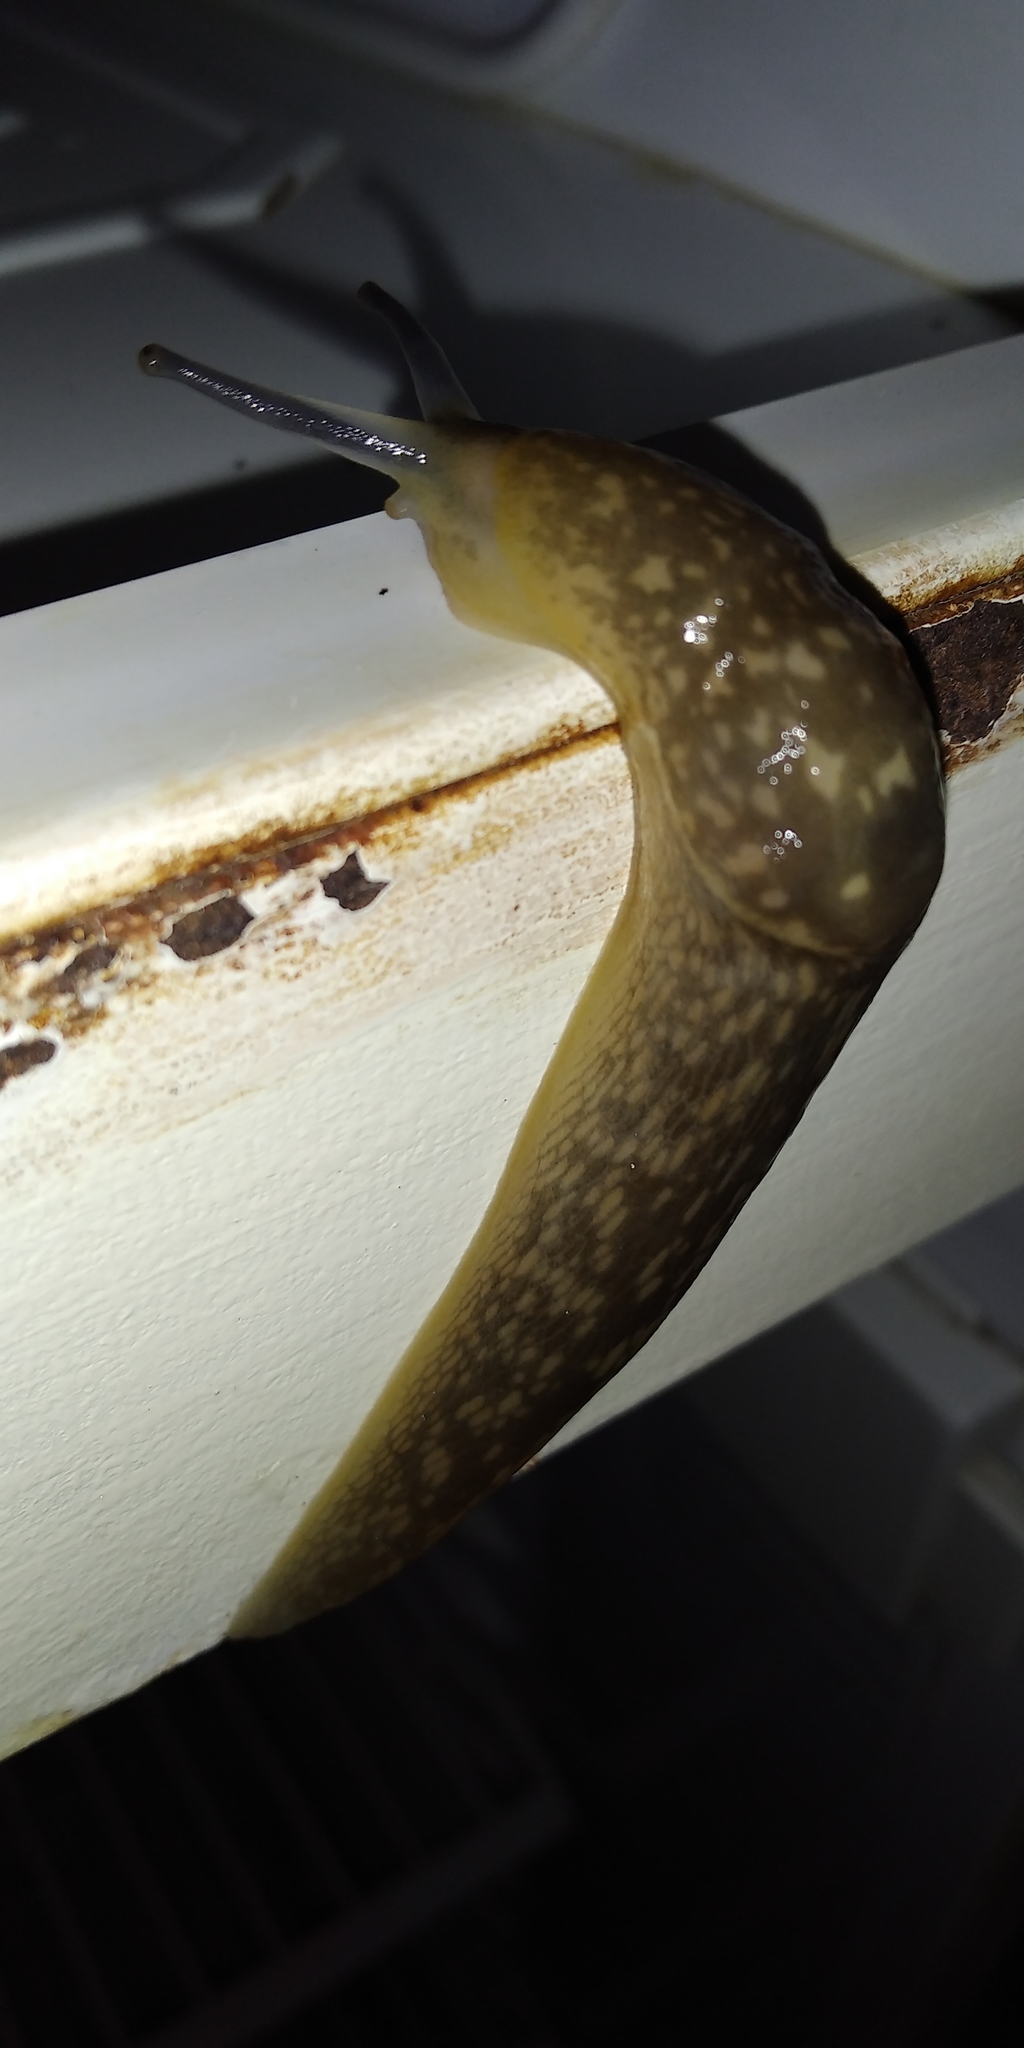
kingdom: Animalia
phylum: Mollusca
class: Gastropoda
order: Stylommatophora
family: Limacidae
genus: Limacus
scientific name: Limacus flavus
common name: Yellow gardenslug
